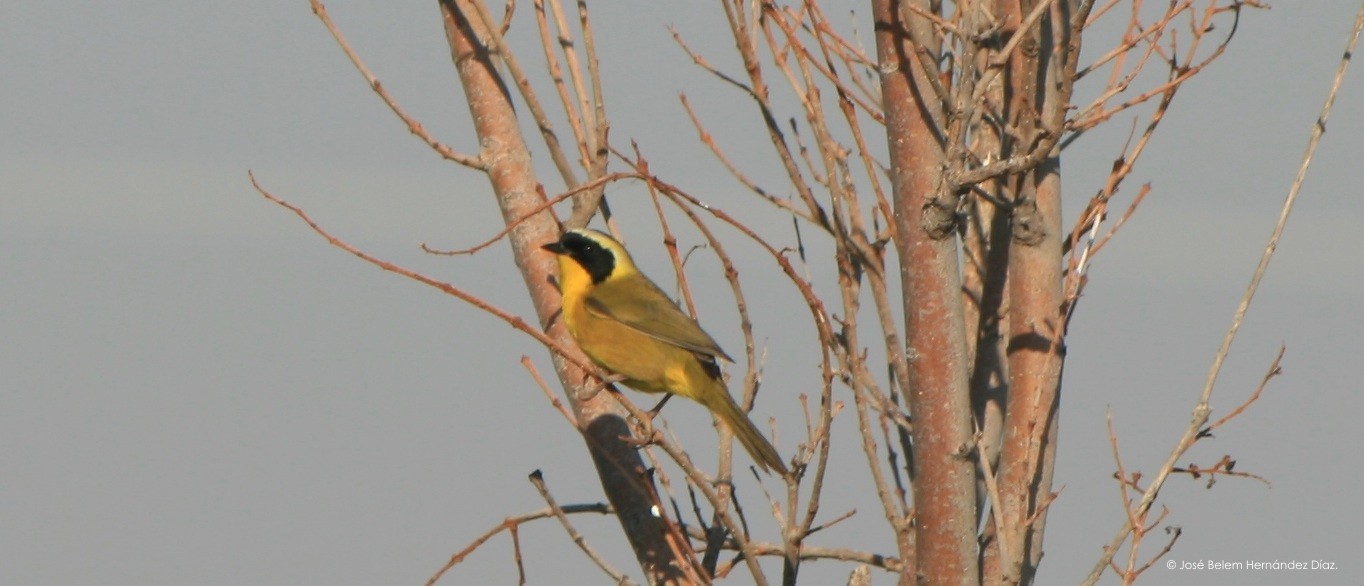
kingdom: Animalia
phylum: Chordata
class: Aves
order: Passeriformes
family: Parulidae
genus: Geothlypis
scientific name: Geothlypis trichas
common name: Common yellowthroat
